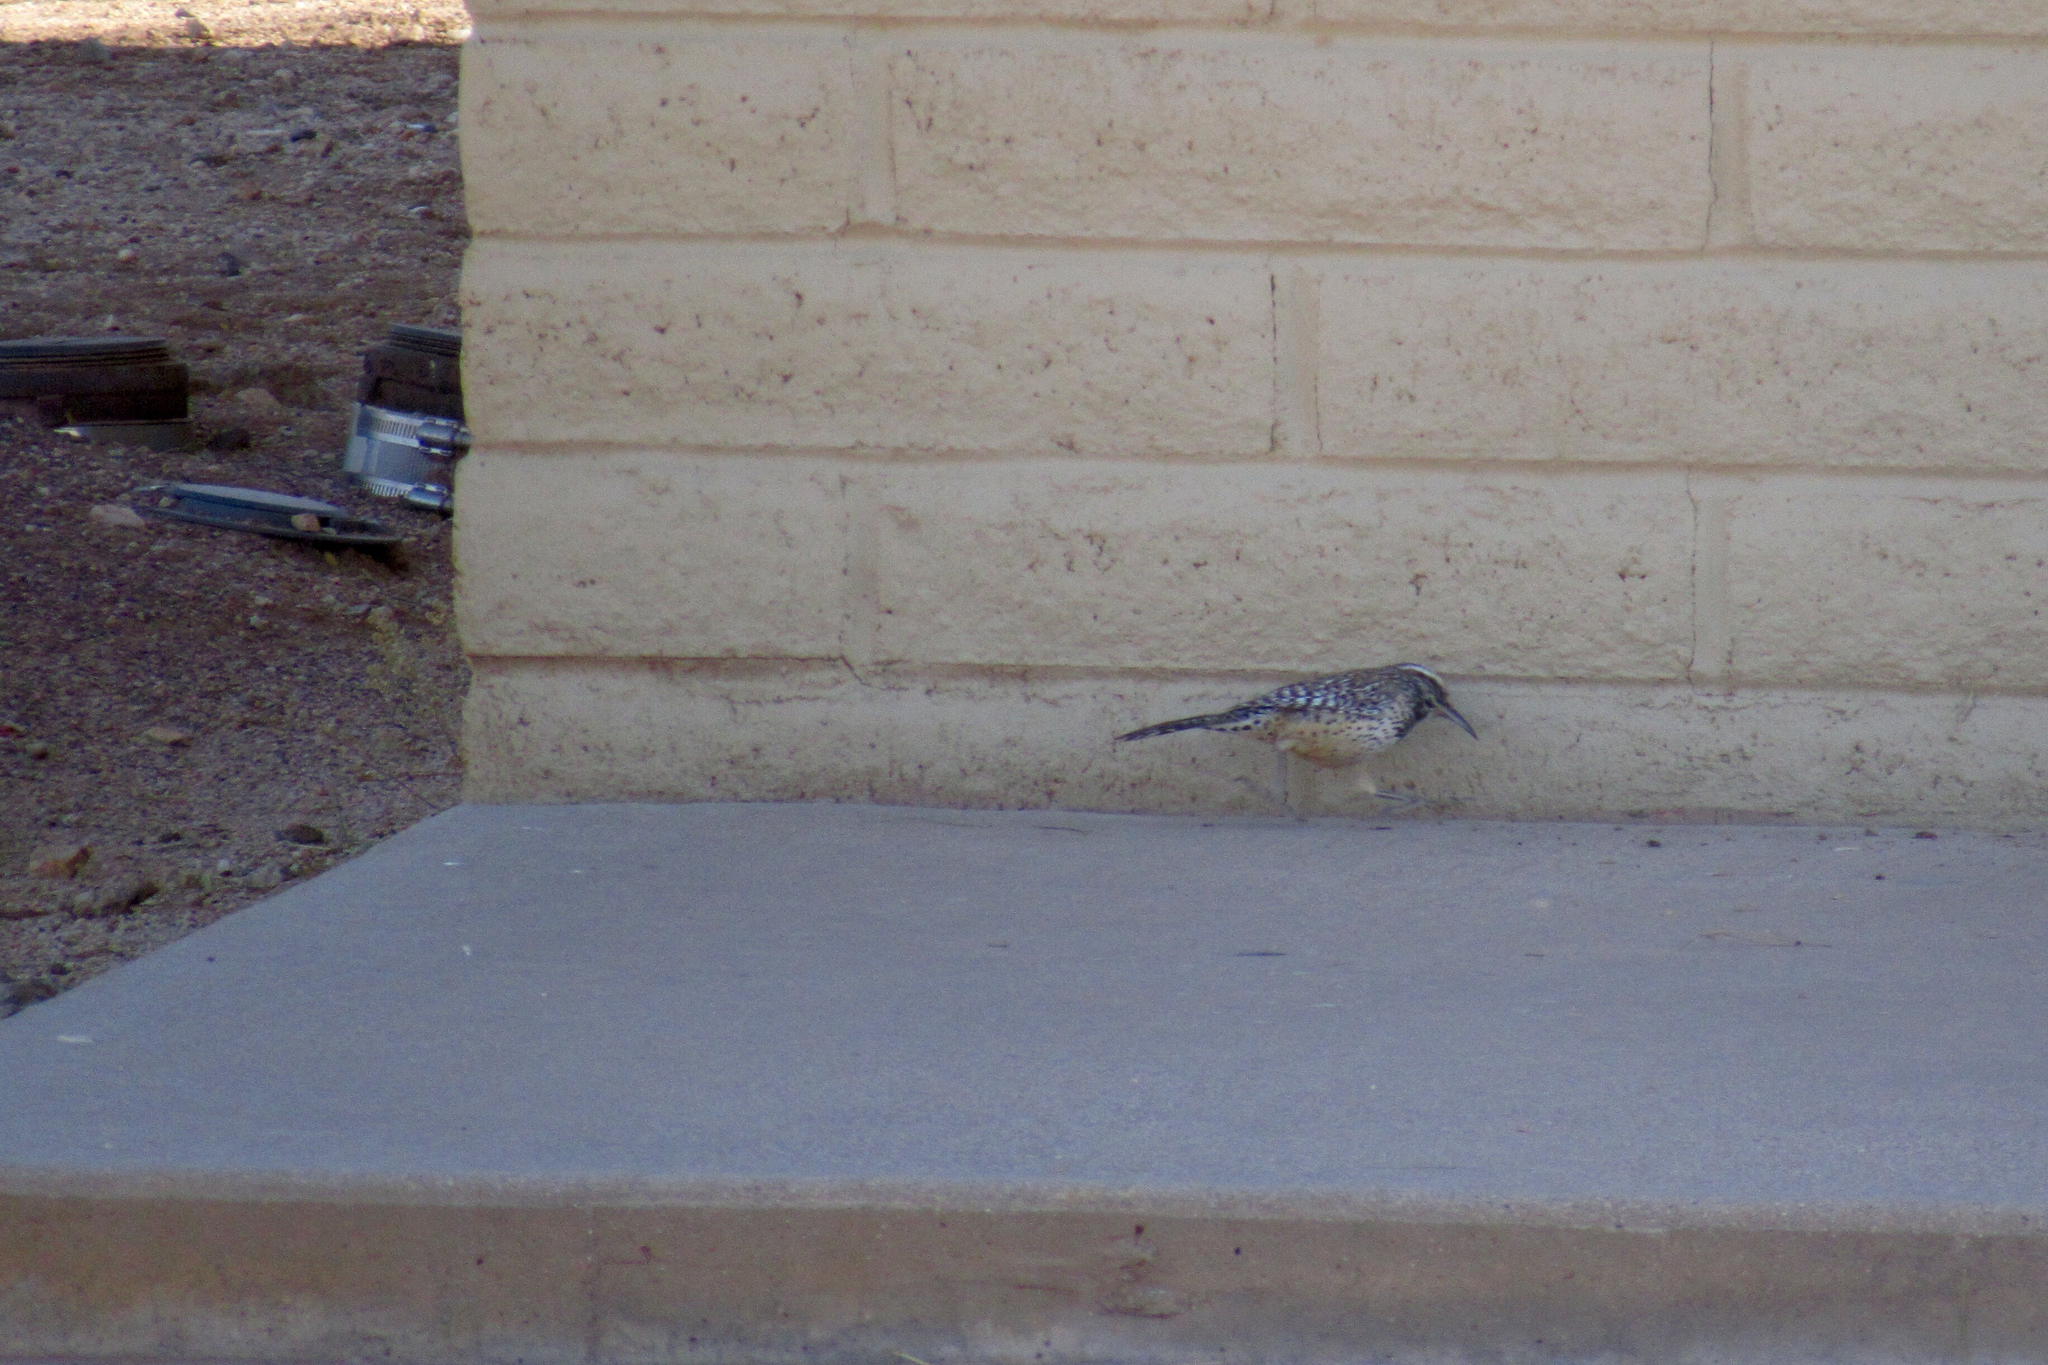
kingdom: Animalia
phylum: Chordata
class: Aves
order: Passeriformes
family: Troglodytidae
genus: Campylorhynchus
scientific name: Campylorhynchus brunneicapillus
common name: Cactus wren
